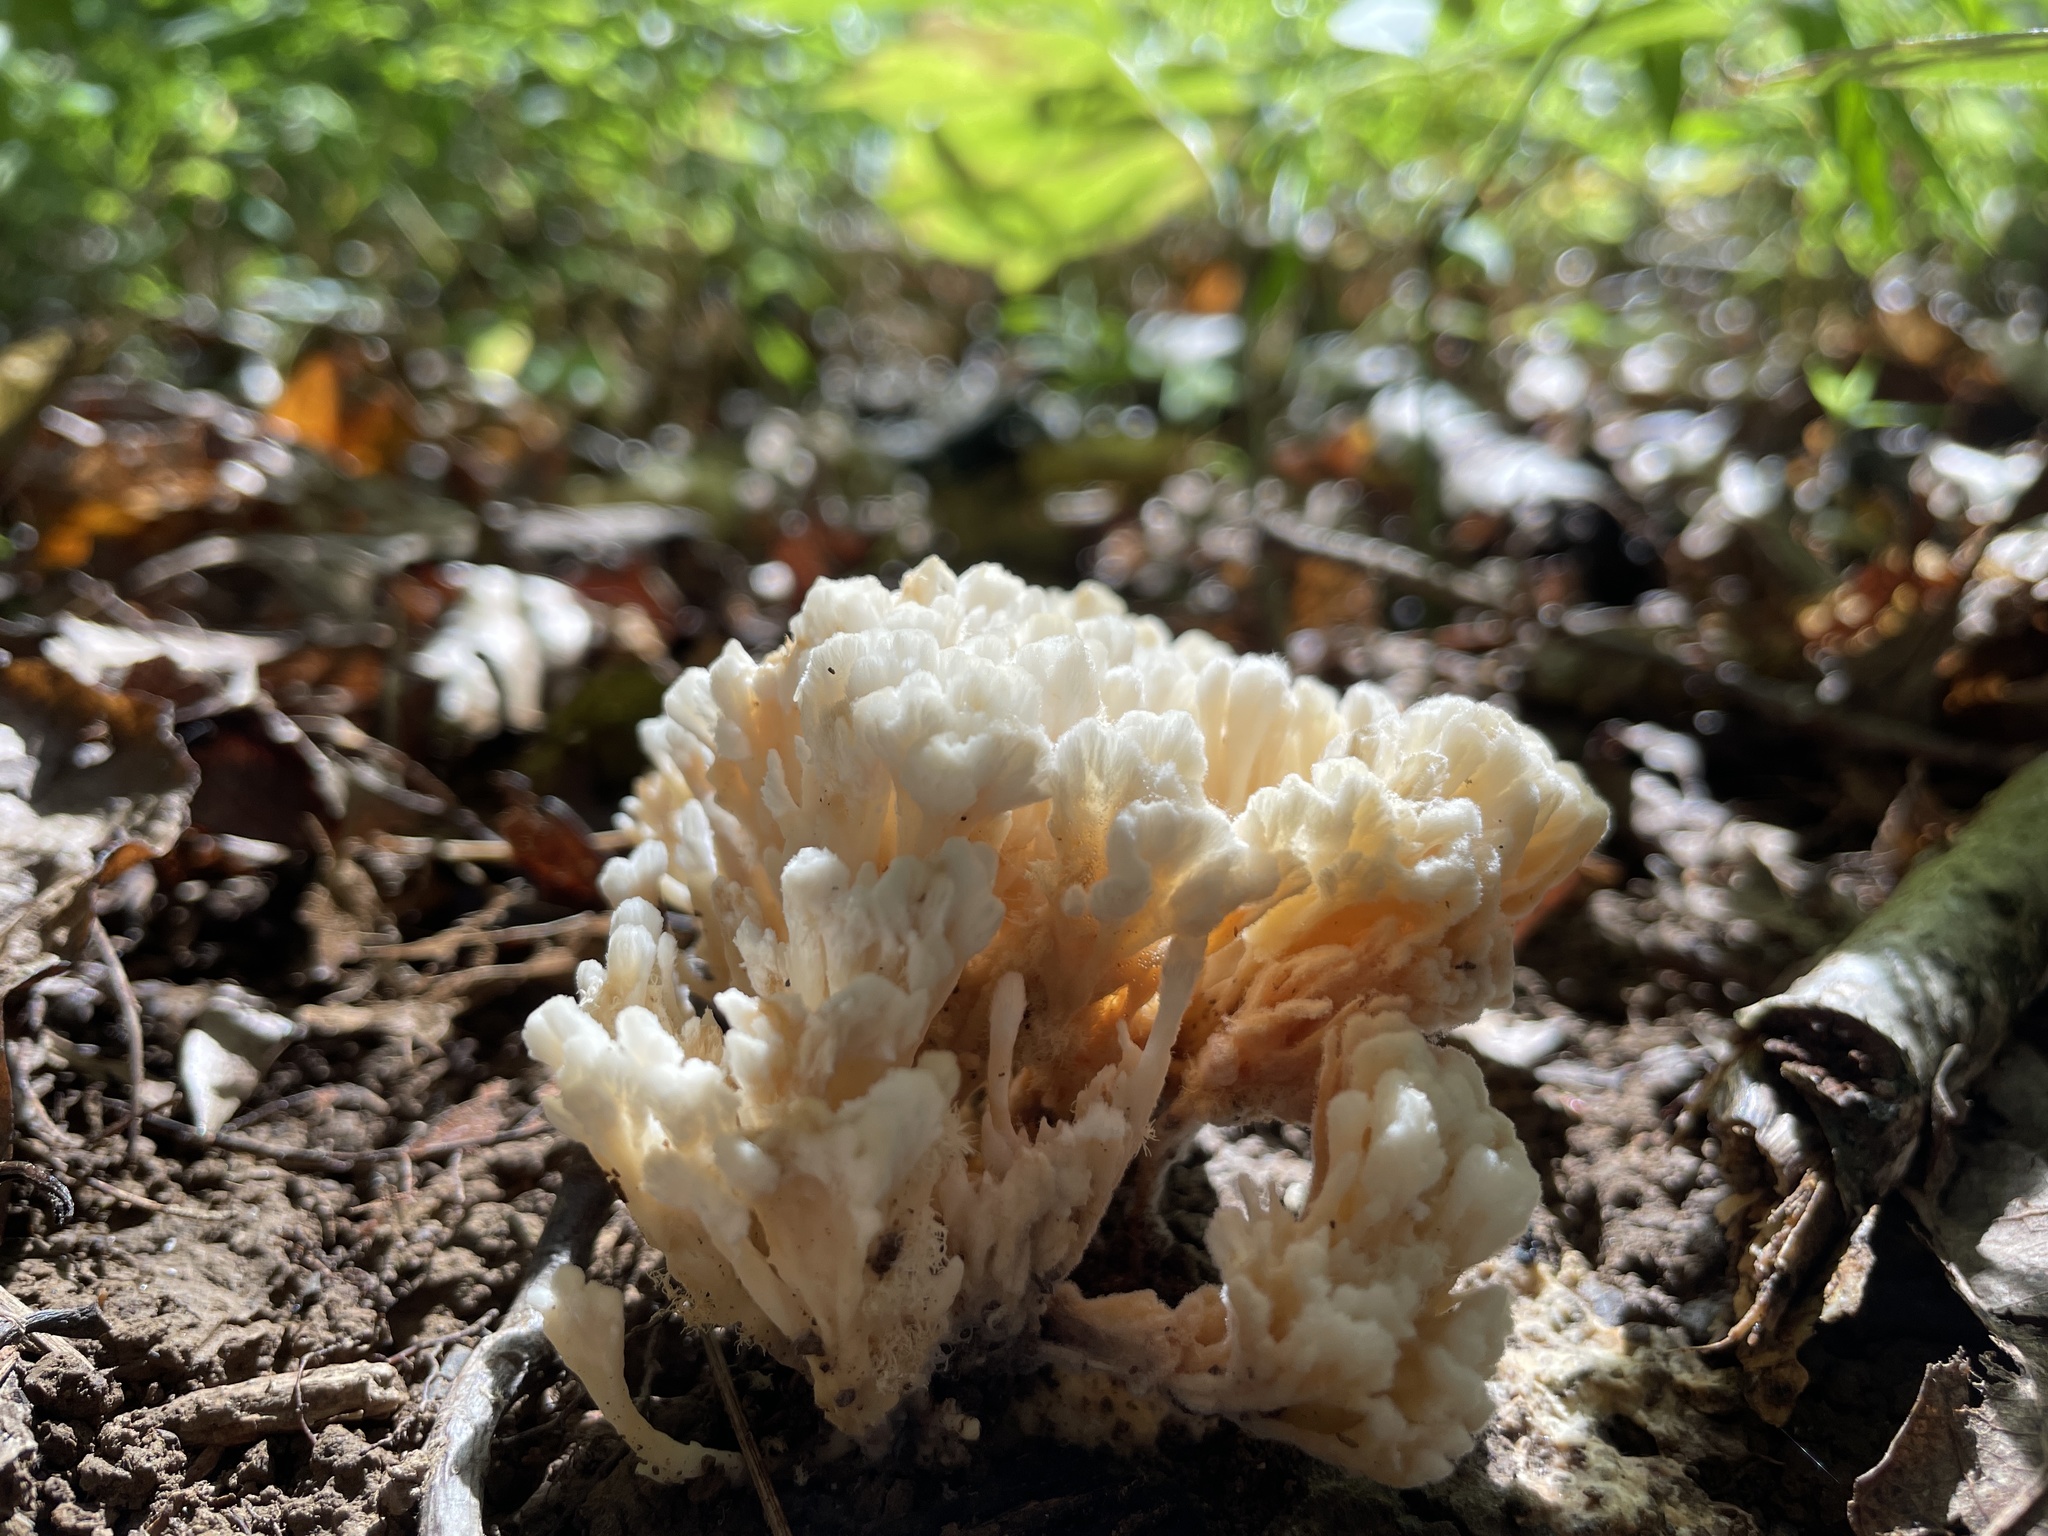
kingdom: Fungi
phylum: Basidiomycota
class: Agaricomycetes
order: Sebacinales
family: Sebacinaceae
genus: Sebacina
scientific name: Sebacina schweinitzii
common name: Jellied false coral fungus
